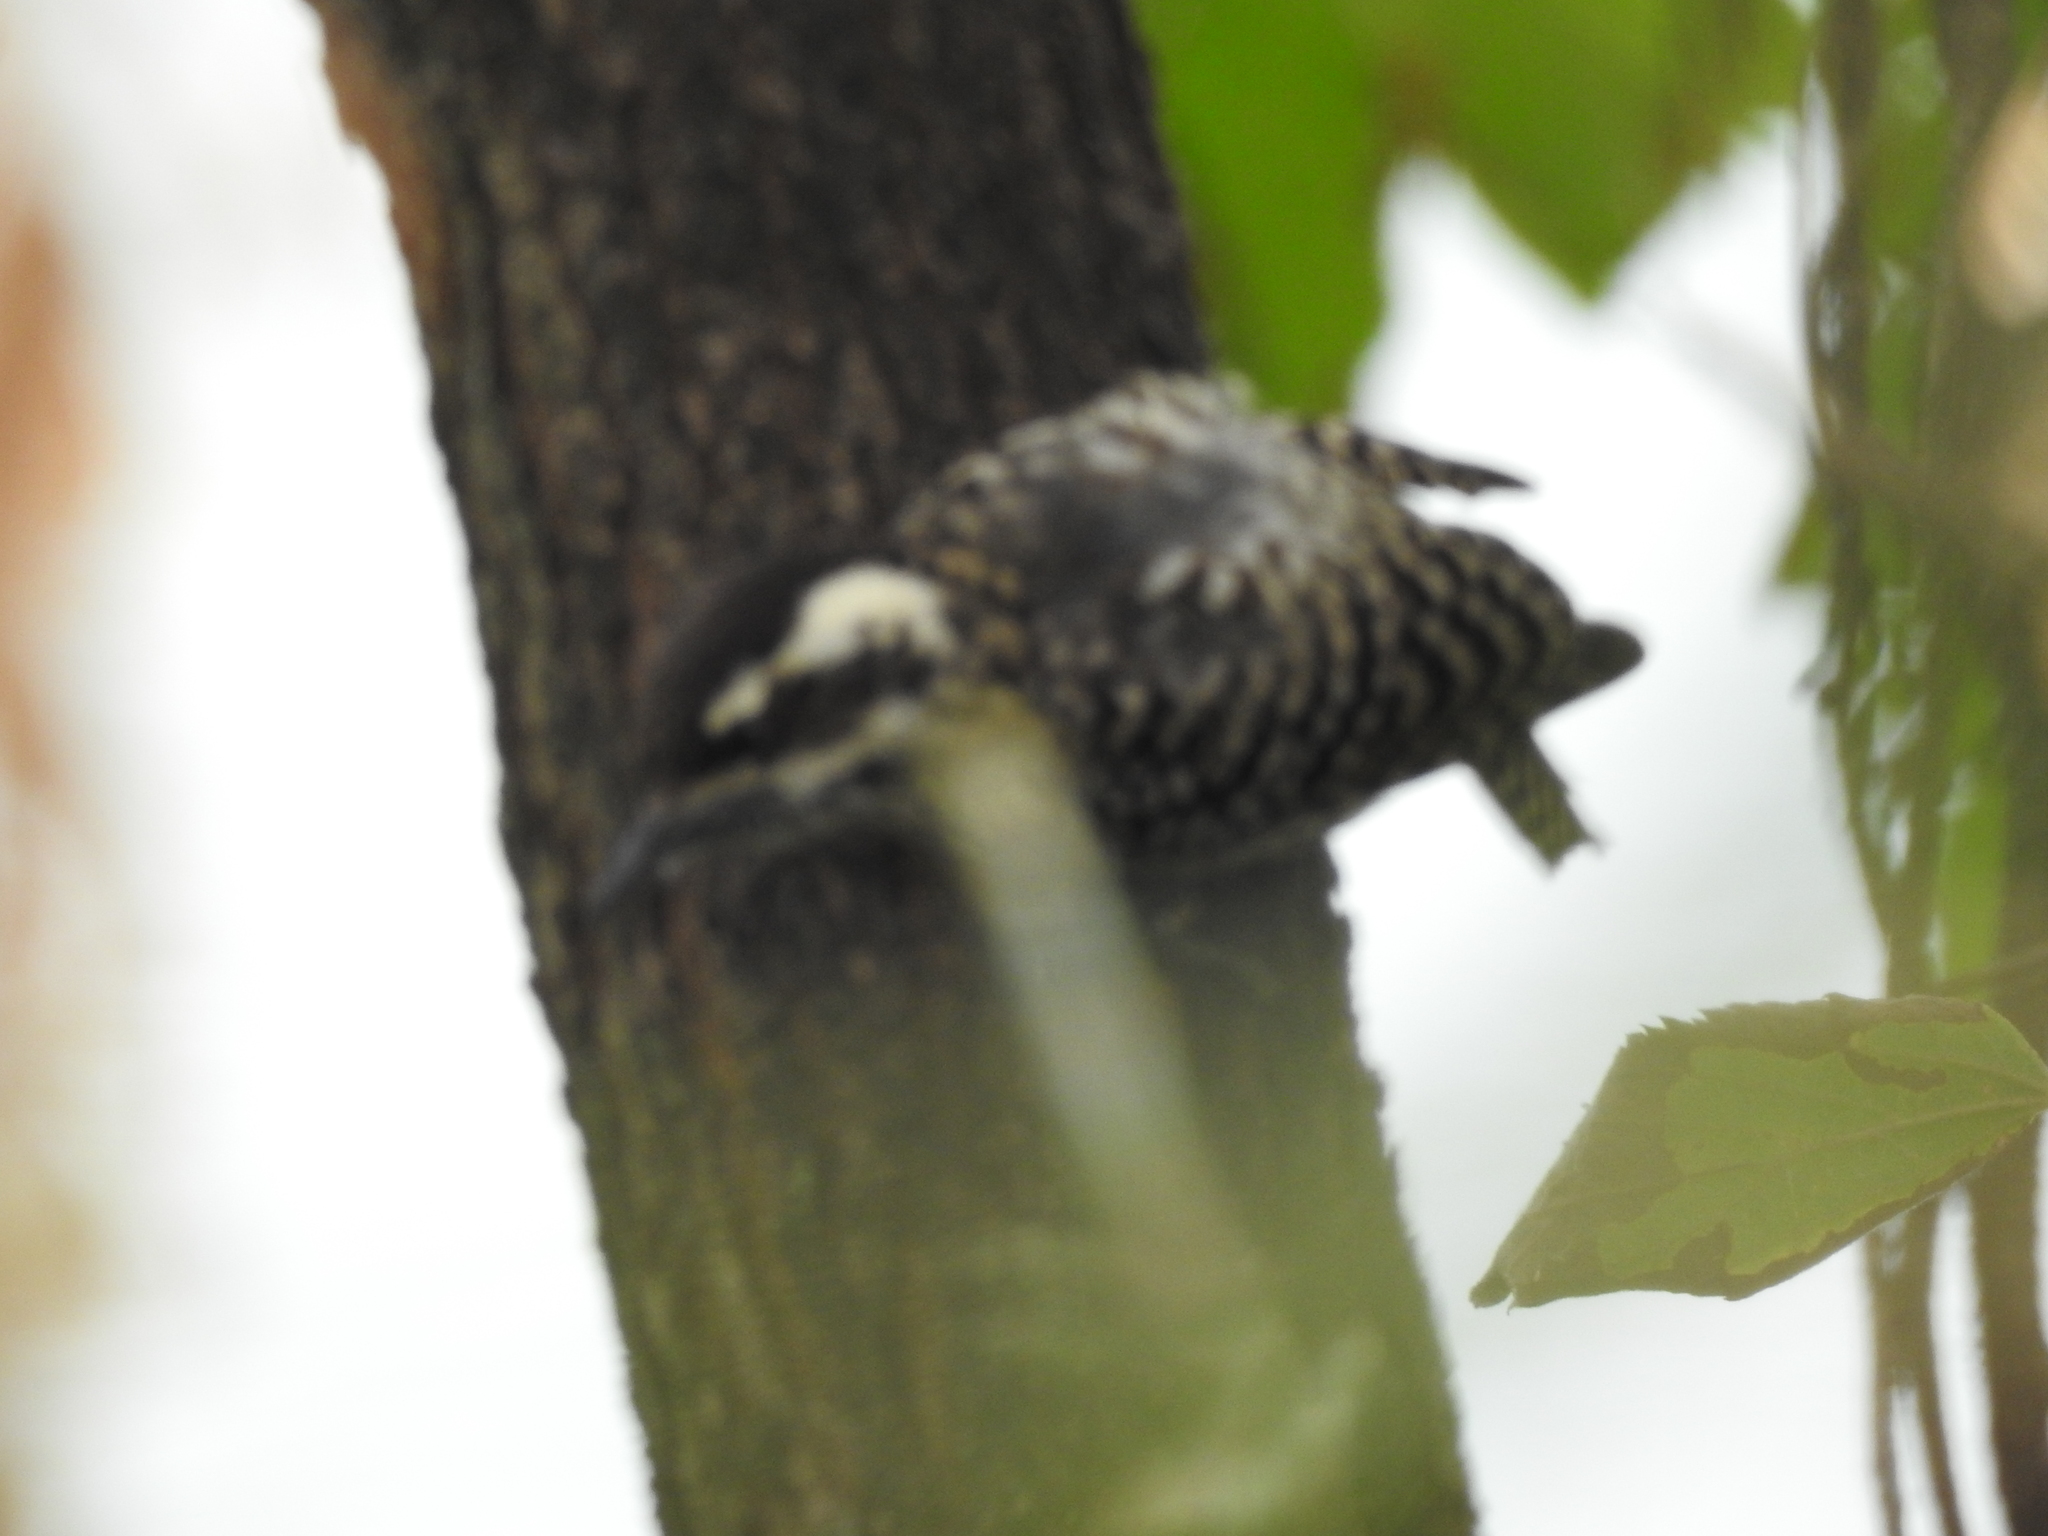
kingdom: Animalia
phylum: Chordata
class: Aves
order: Piciformes
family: Picidae
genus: Veniliornis
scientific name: Veniliornis mixtus
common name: Checkered woodpecker
